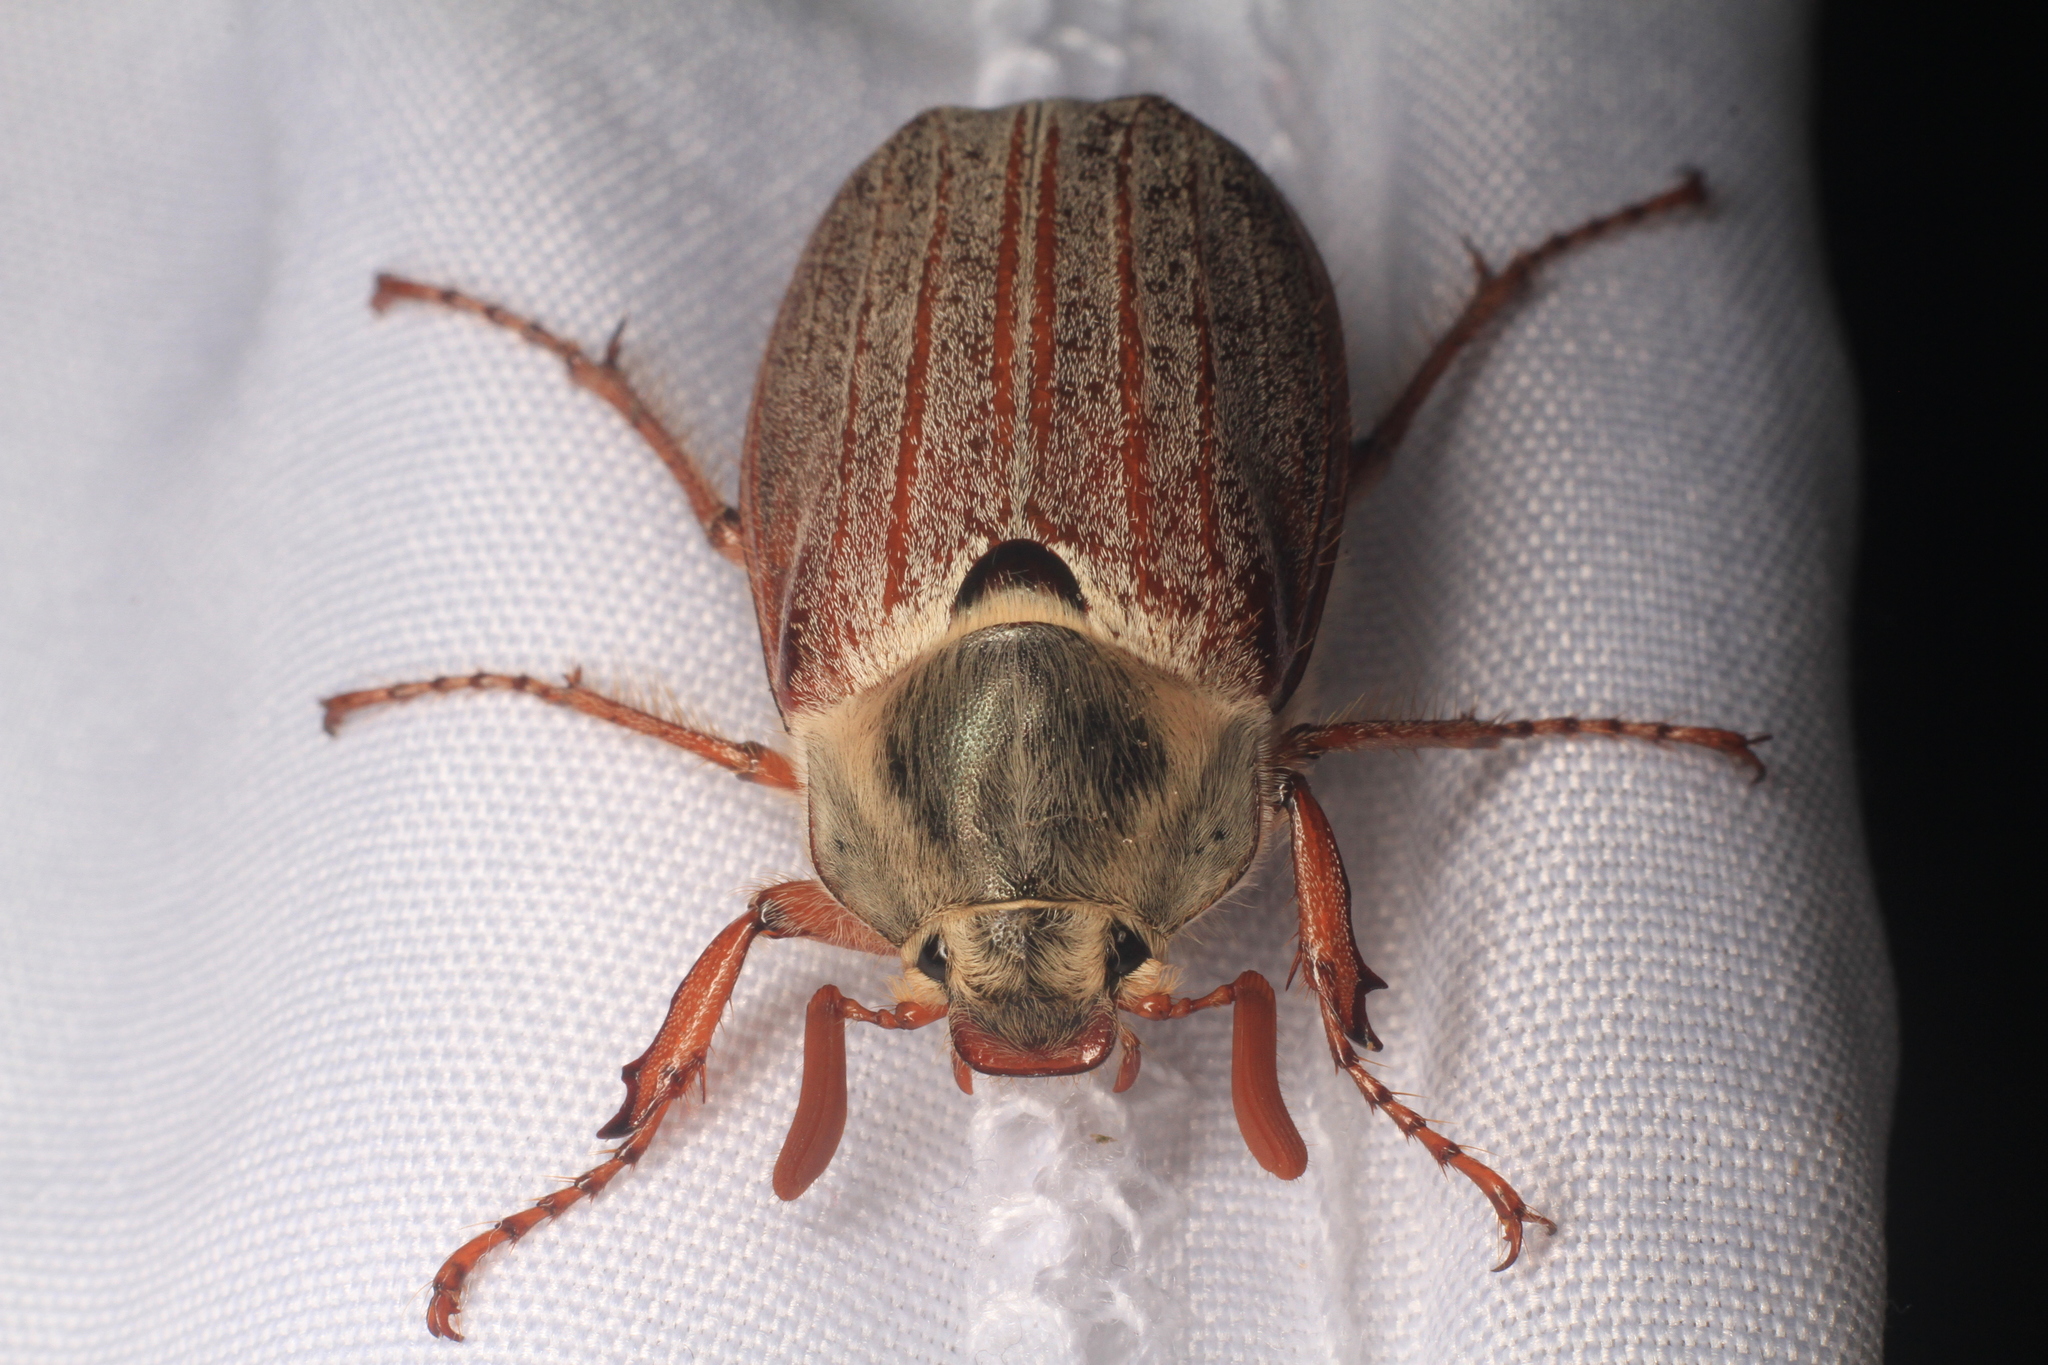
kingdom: Animalia
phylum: Arthropoda
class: Insecta
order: Coleoptera
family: Scarabaeidae
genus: Melolontha
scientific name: Melolontha melolontha
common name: Cockchafer maybeetle
